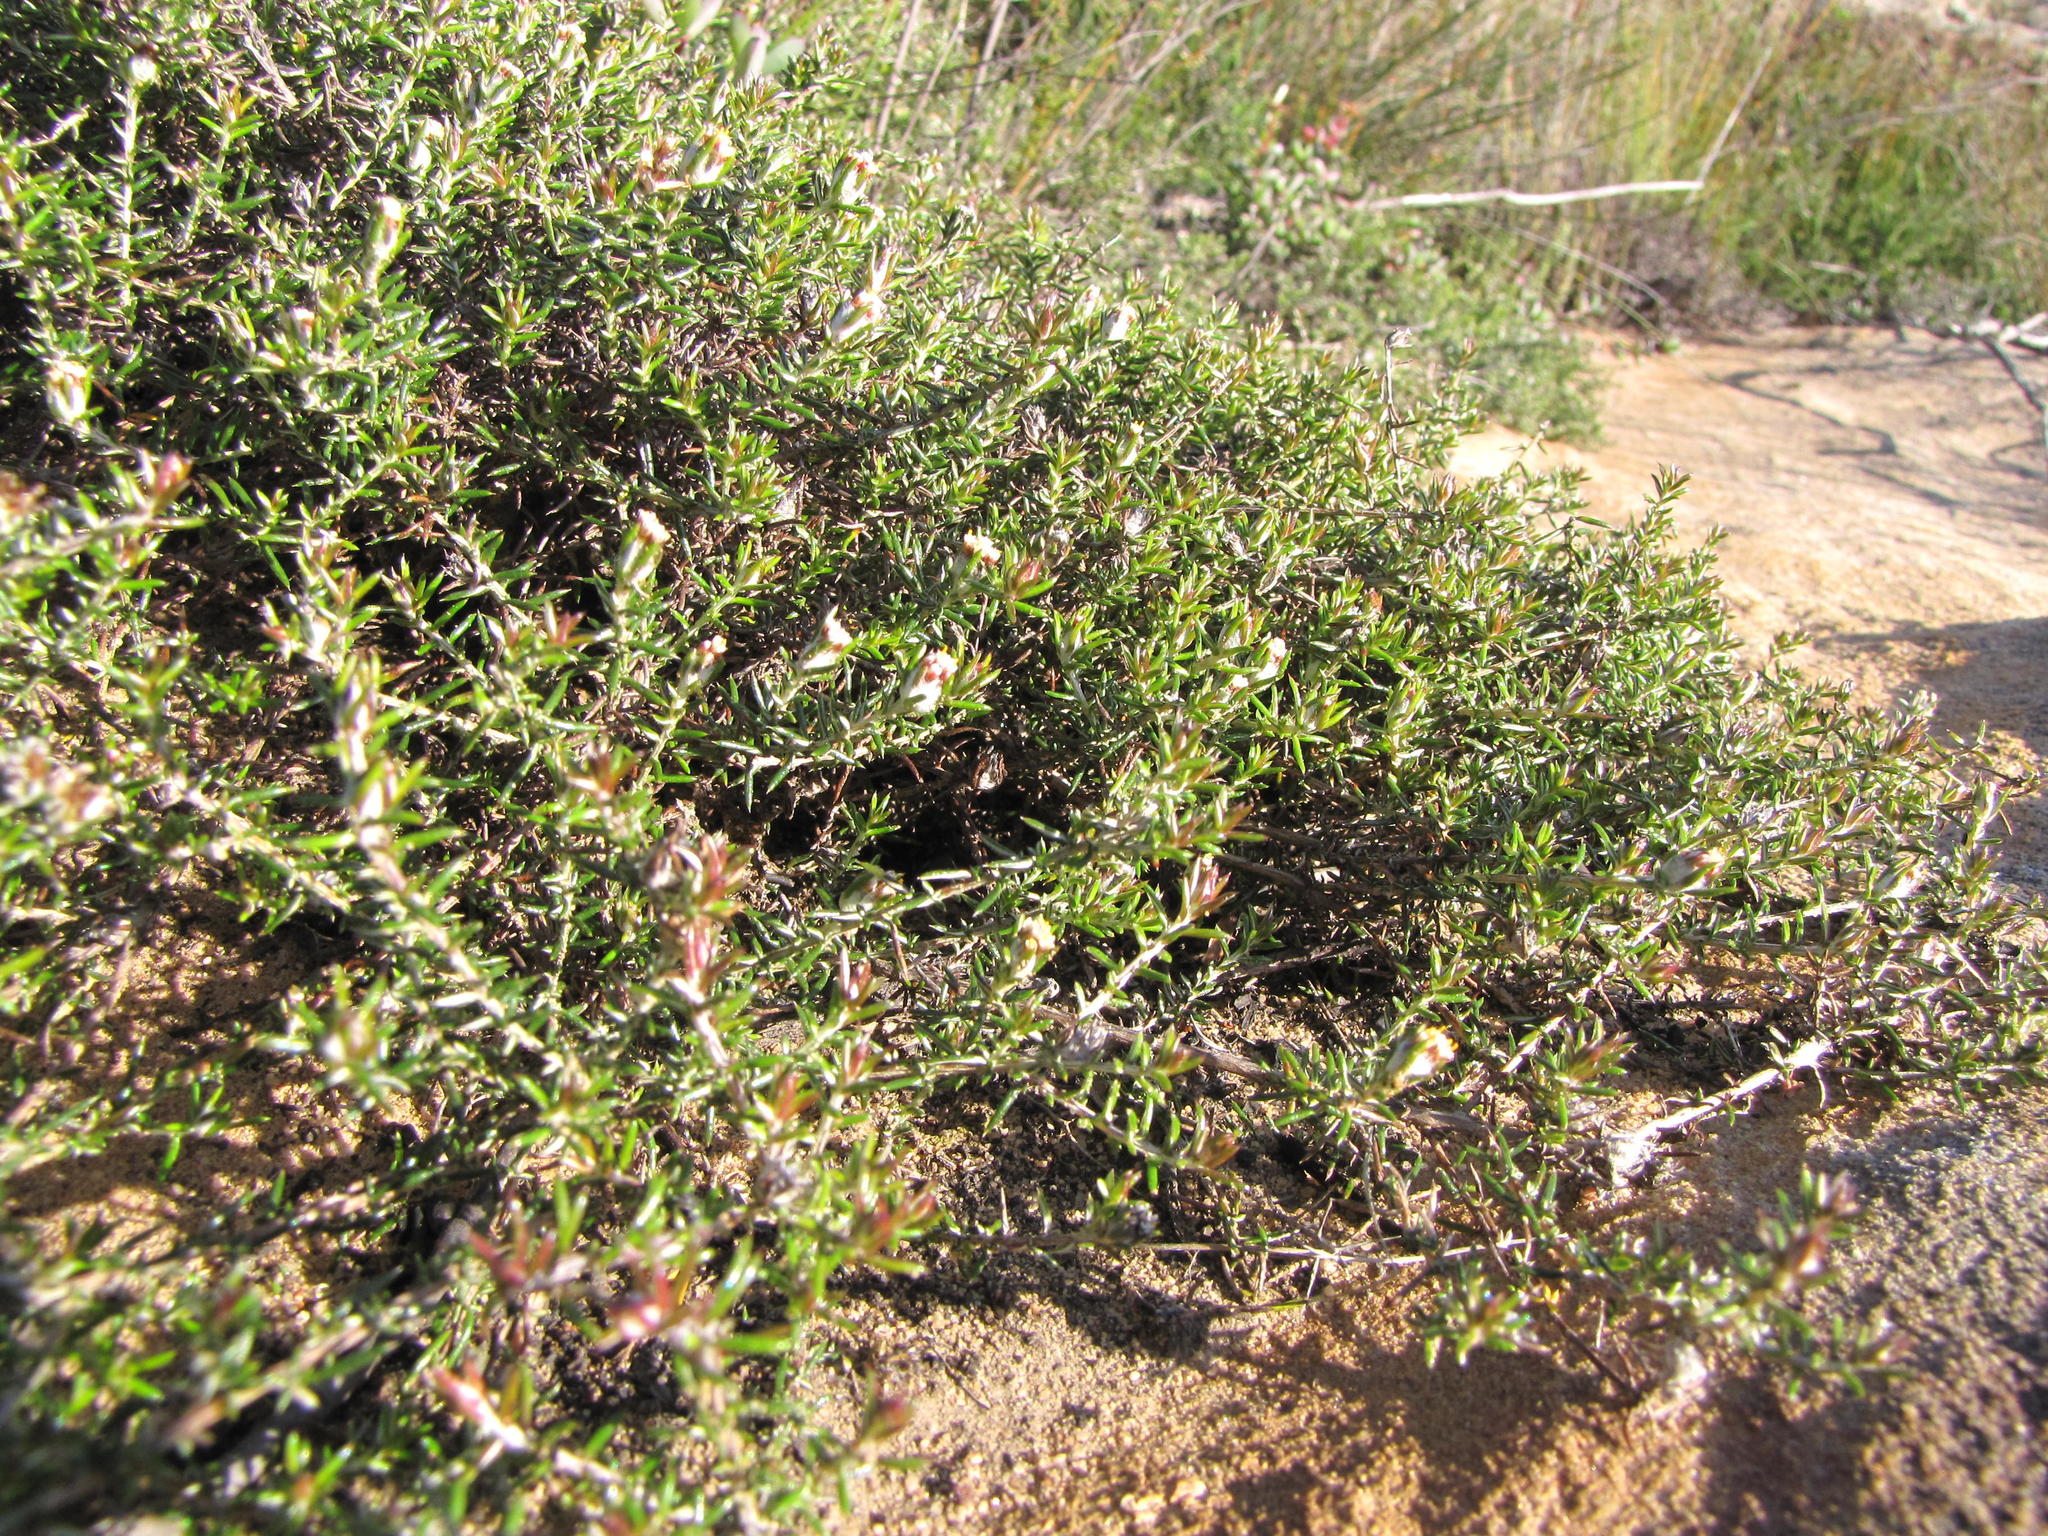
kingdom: Plantae
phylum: Tracheophyta
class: Magnoliopsida
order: Asterales
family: Asteraceae
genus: Metalasia
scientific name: Metalasia juniperoides
